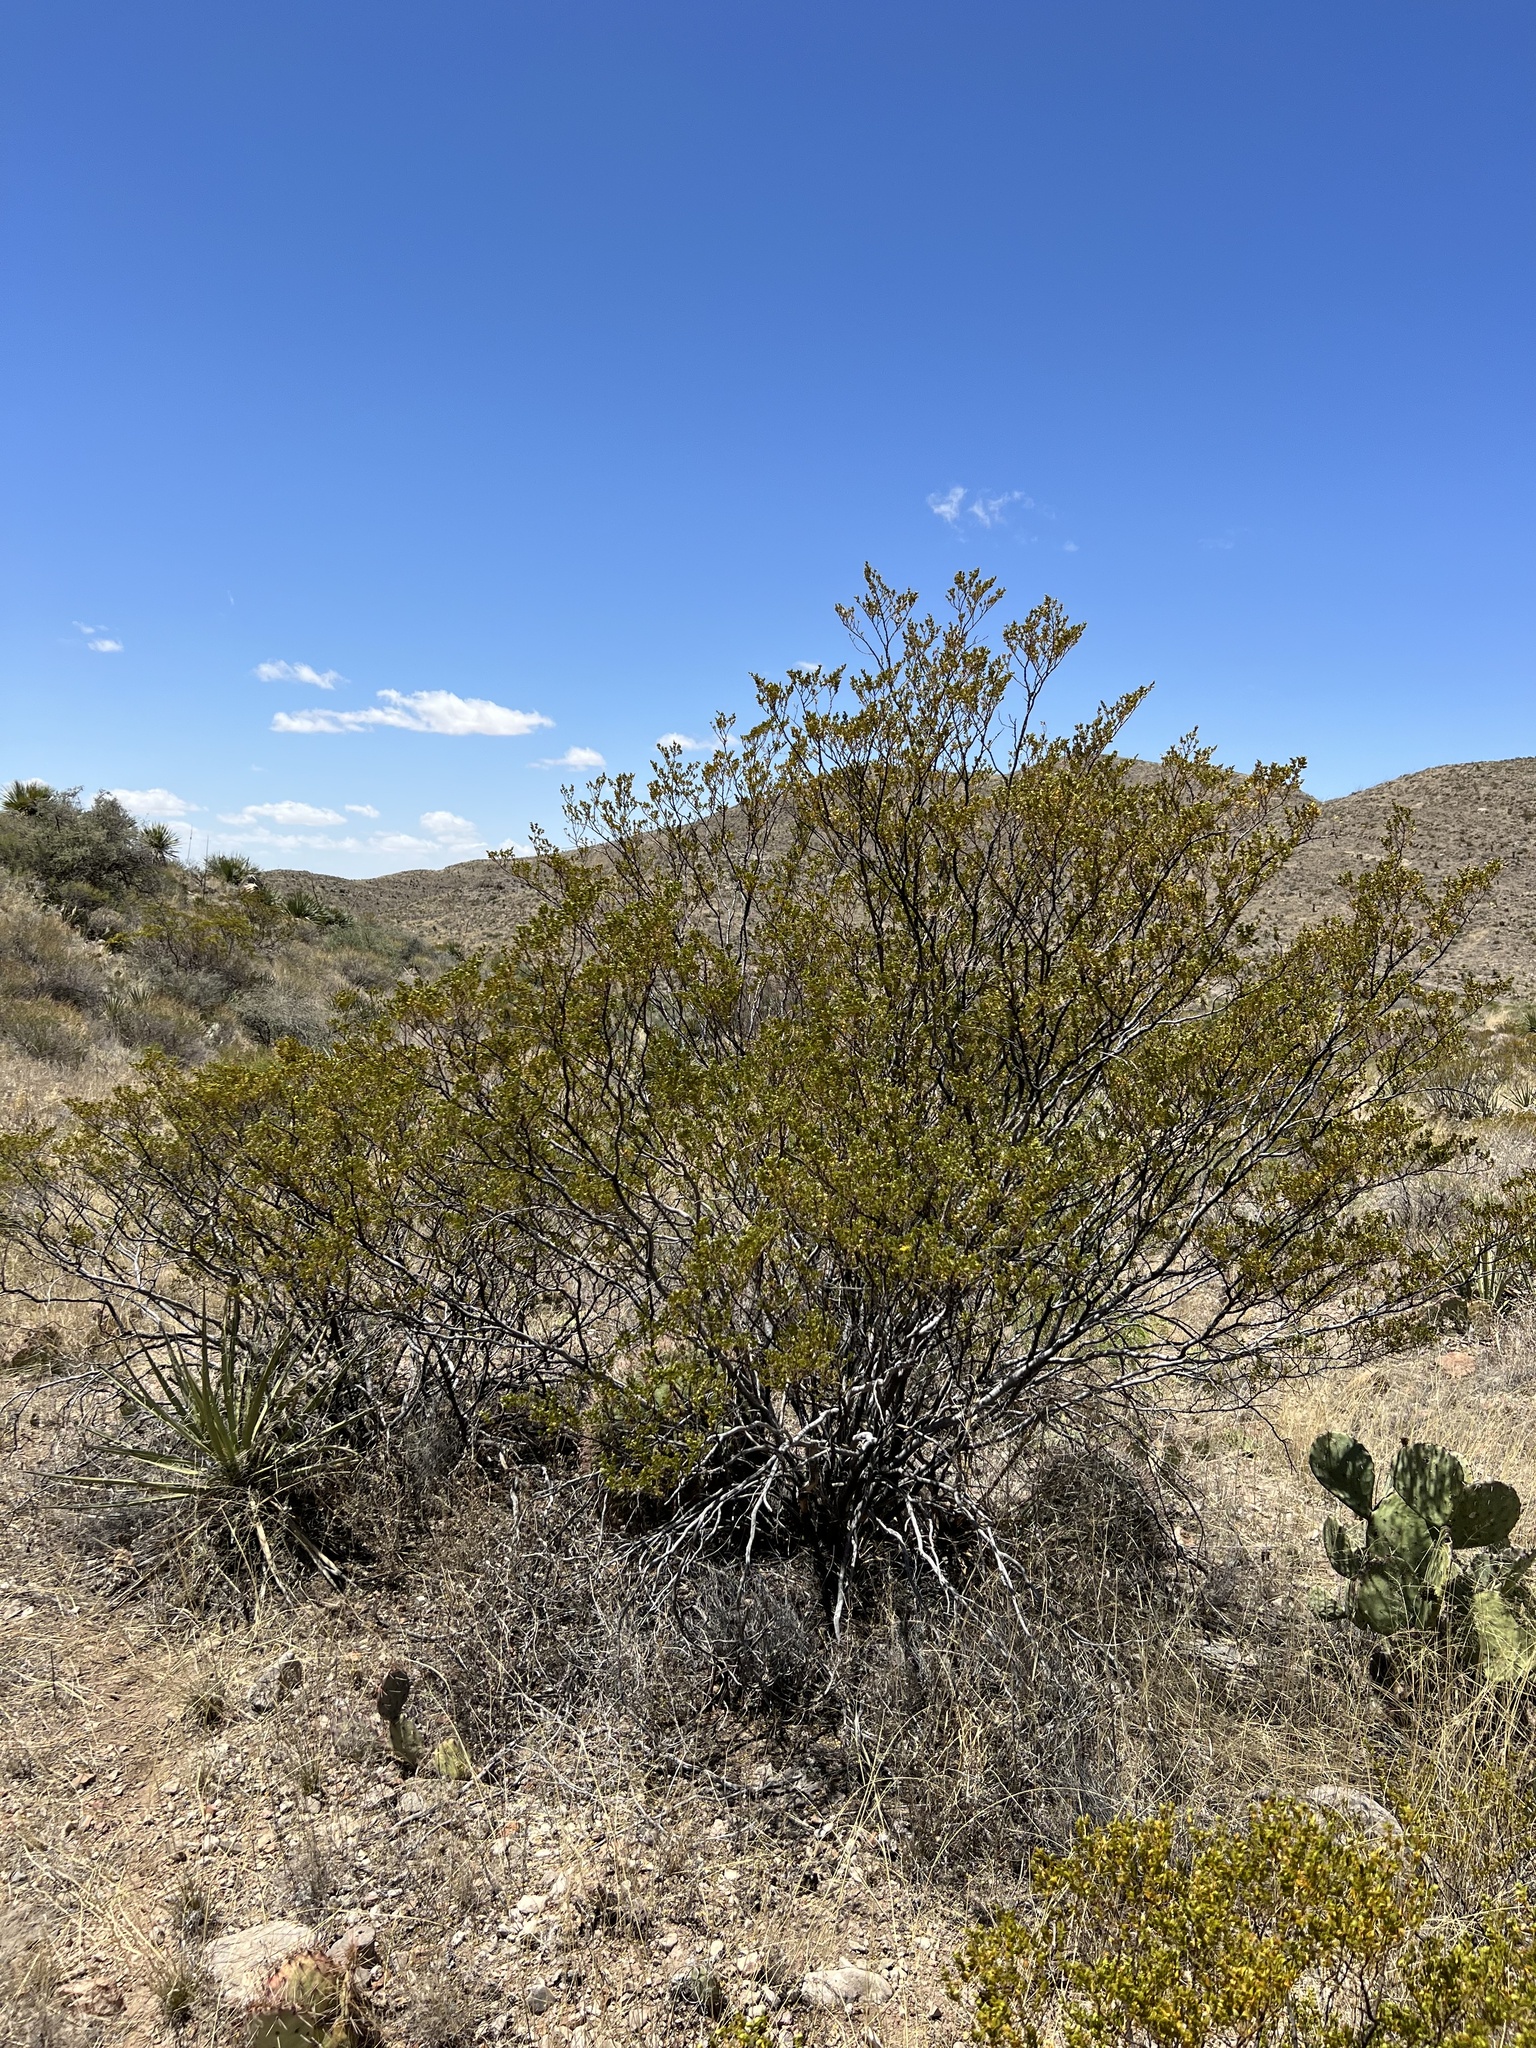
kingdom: Plantae
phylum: Tracheophyta
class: Magnoliopsida
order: Zygophyllales
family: Zygophyllaceae
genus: Larrea
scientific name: Larrea tridentata
